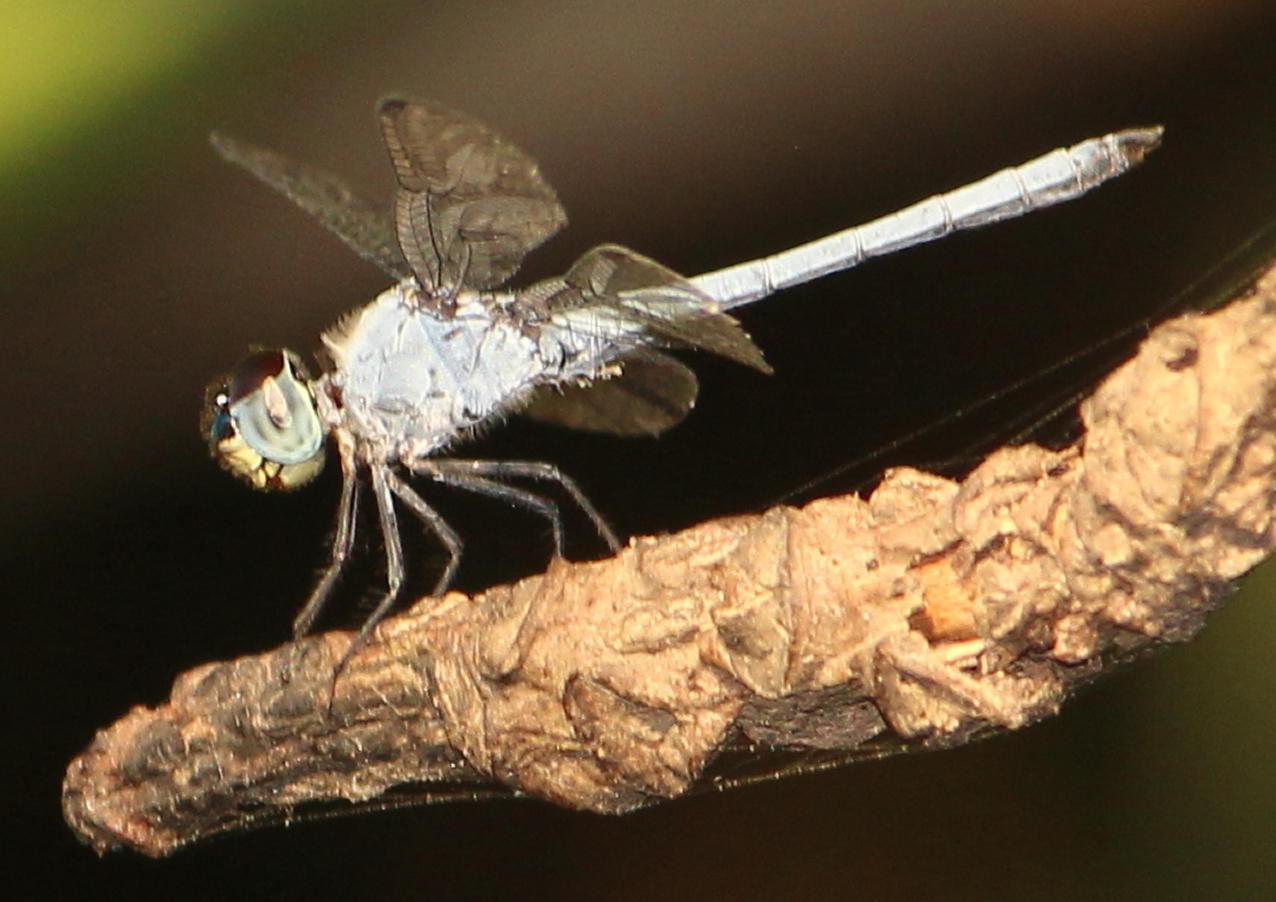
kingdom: Animalia
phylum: Arthropoda
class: Insecta
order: Odonata
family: Libellulidae
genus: Chalcostephia
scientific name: Chalcostephia flavifrons
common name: Inspector
